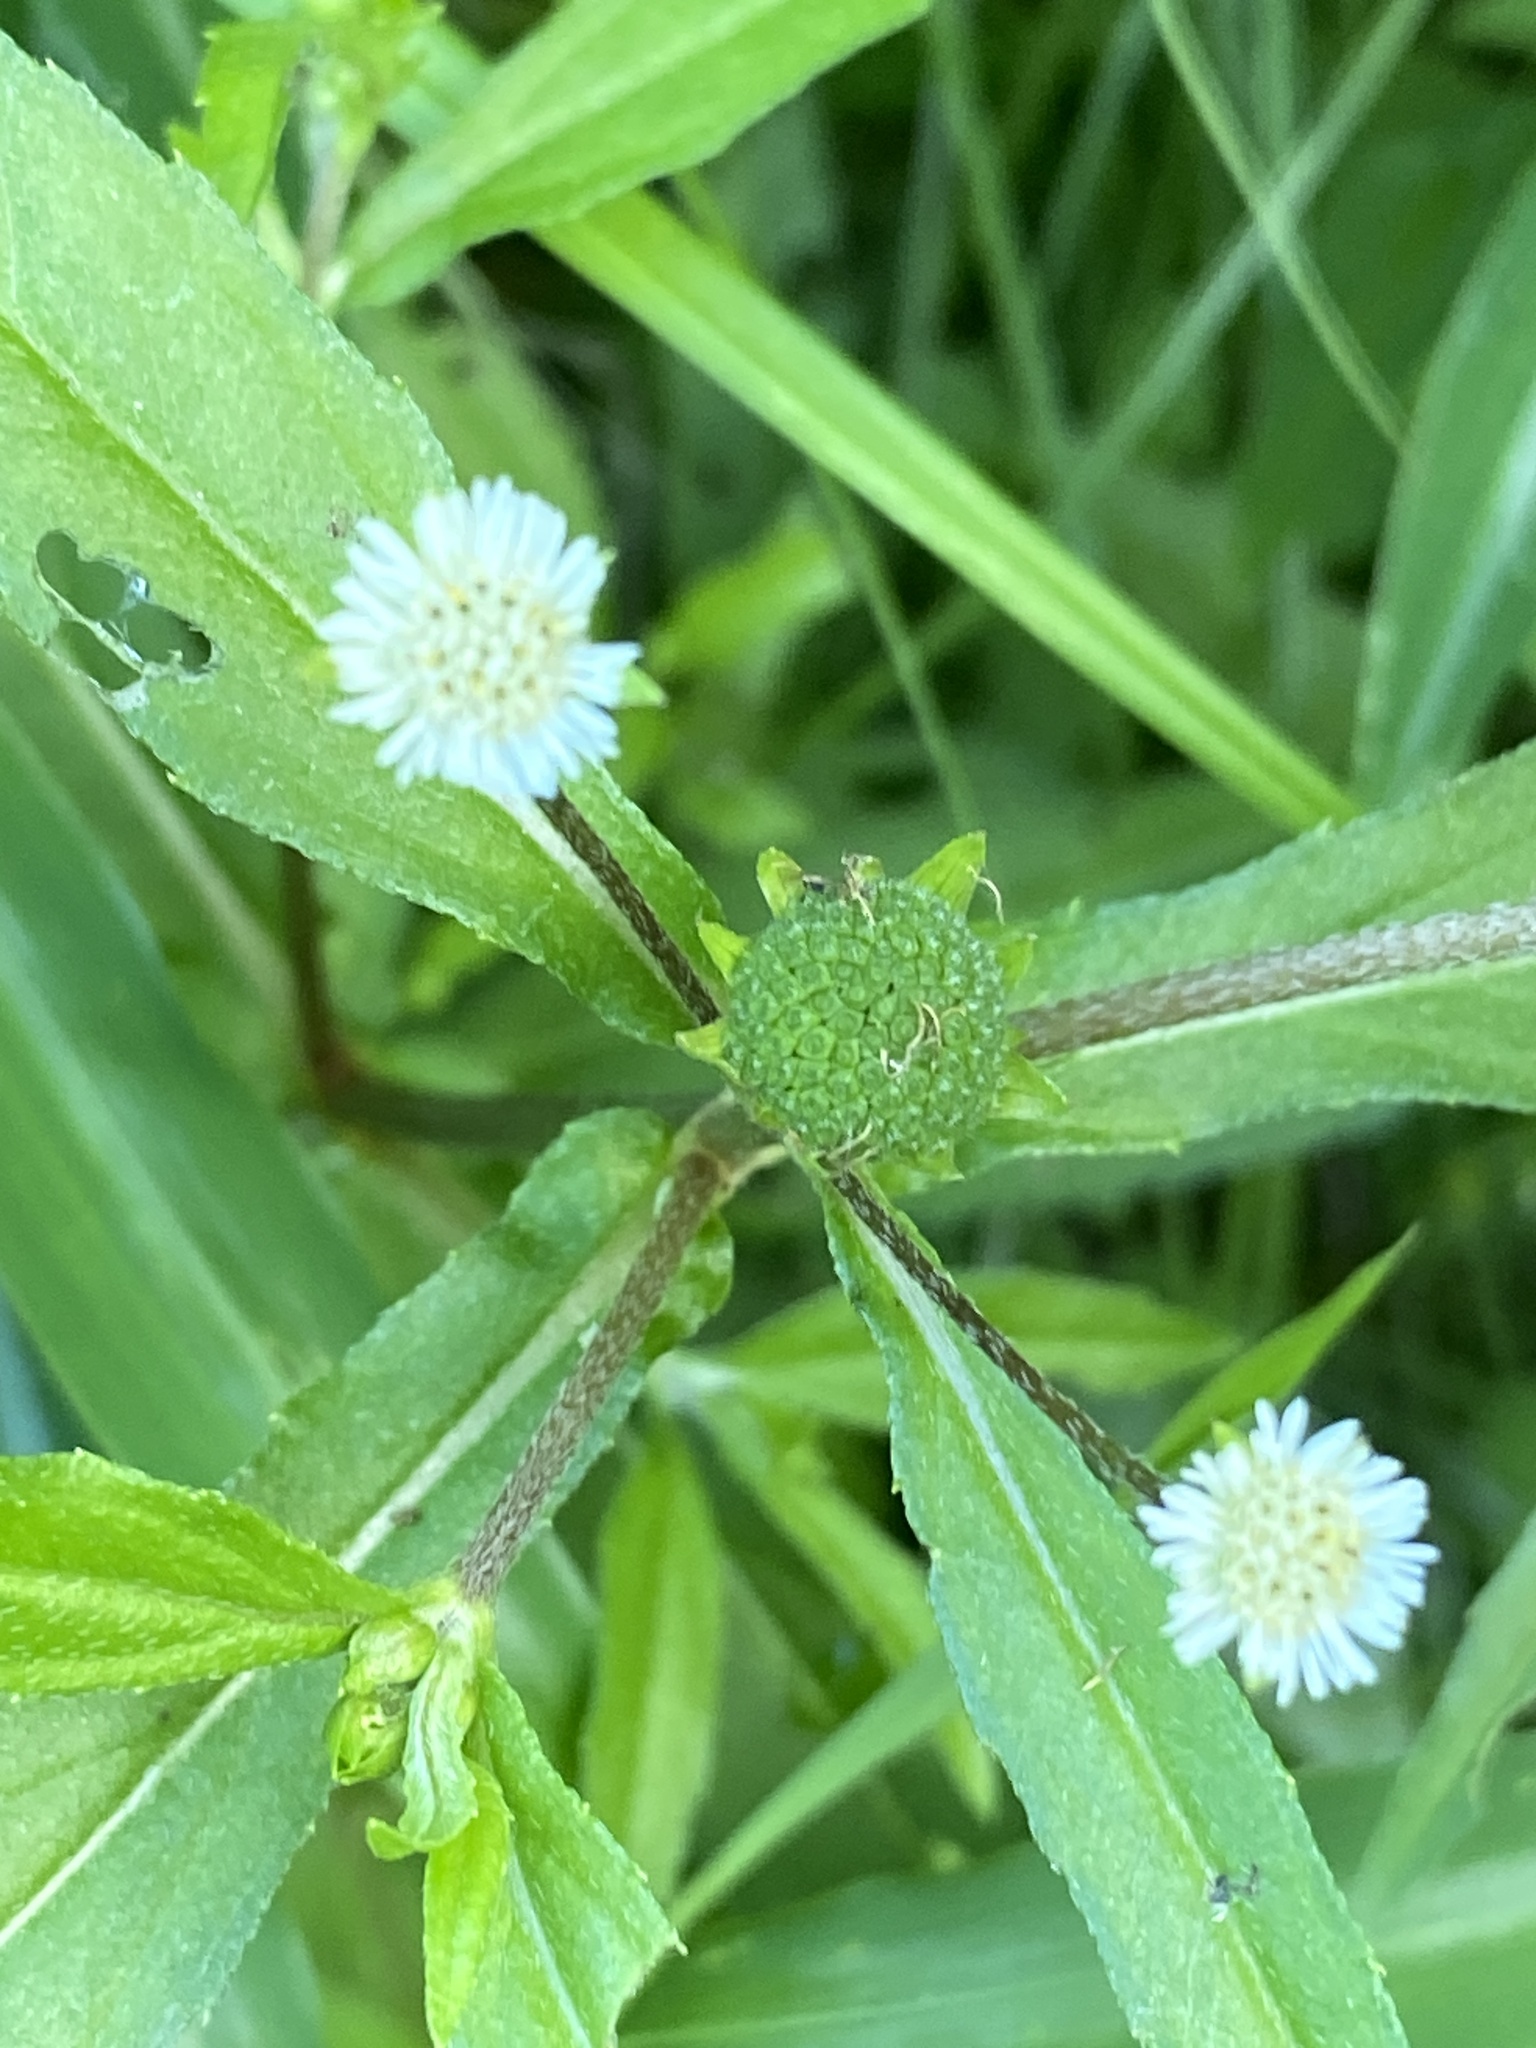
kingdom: Plantae
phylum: Tracheophyta
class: Magnoliopsida
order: Asterales
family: Asteraceae
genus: Eclipta
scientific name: Eclipta prostrata
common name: False daisy
